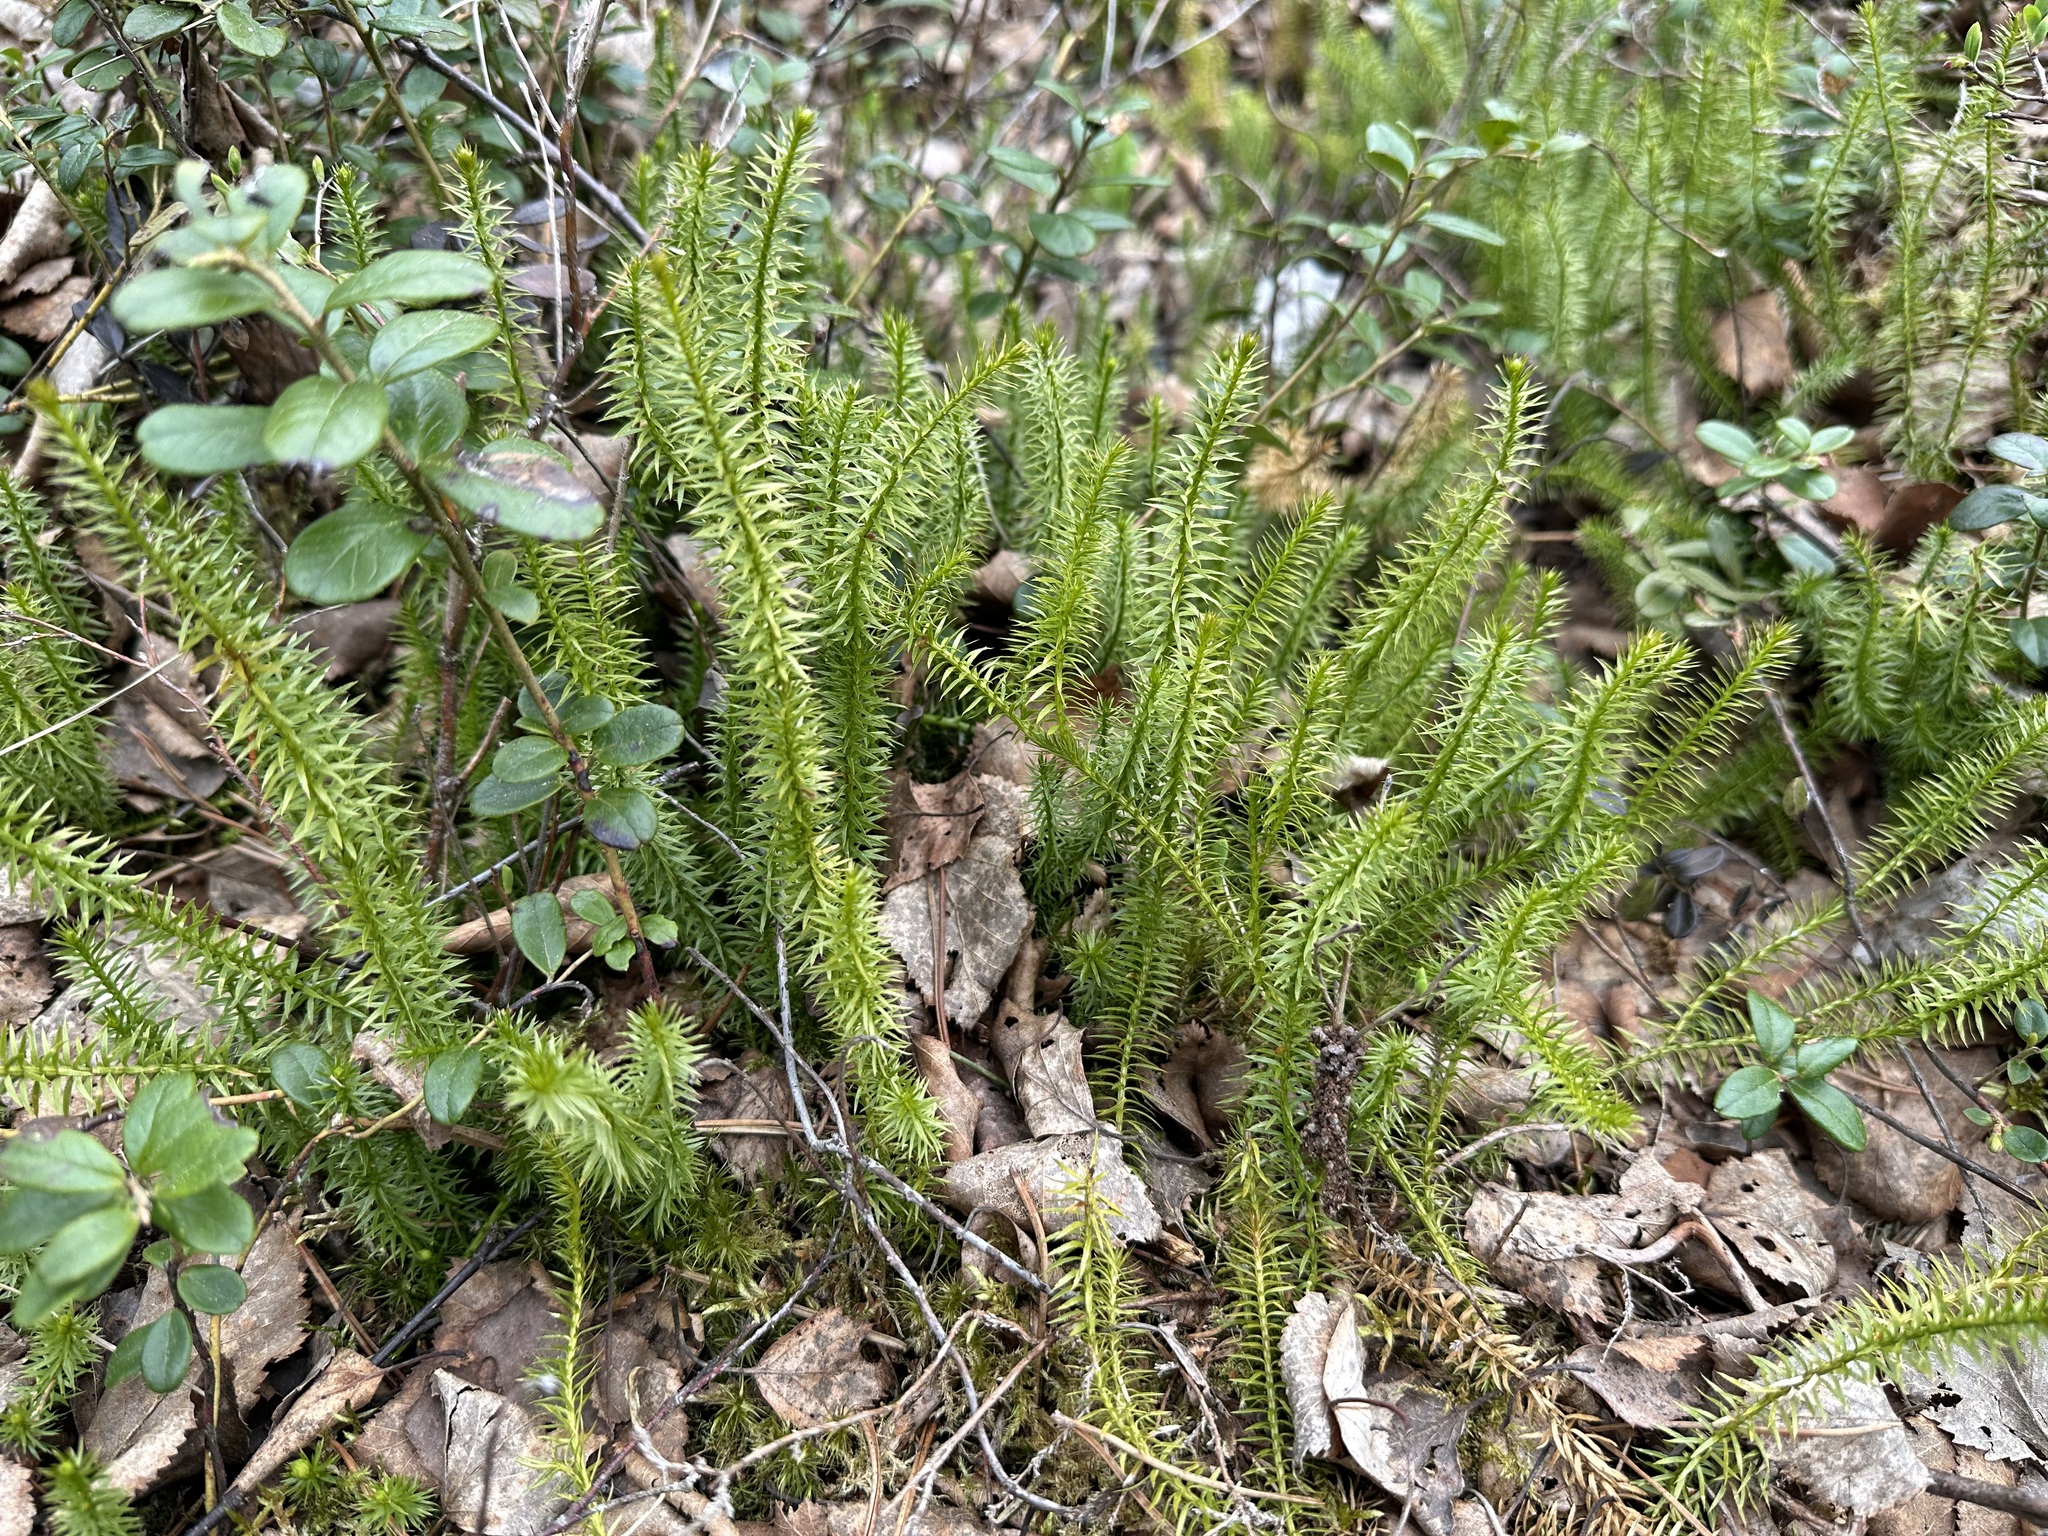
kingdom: Plantae
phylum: Tracheophyta
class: Lycopodiopsida
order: Lycopodiales
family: Lycopodiaceae
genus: Spinulum
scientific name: Spinulum annotinum
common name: Interrupted club-moss
